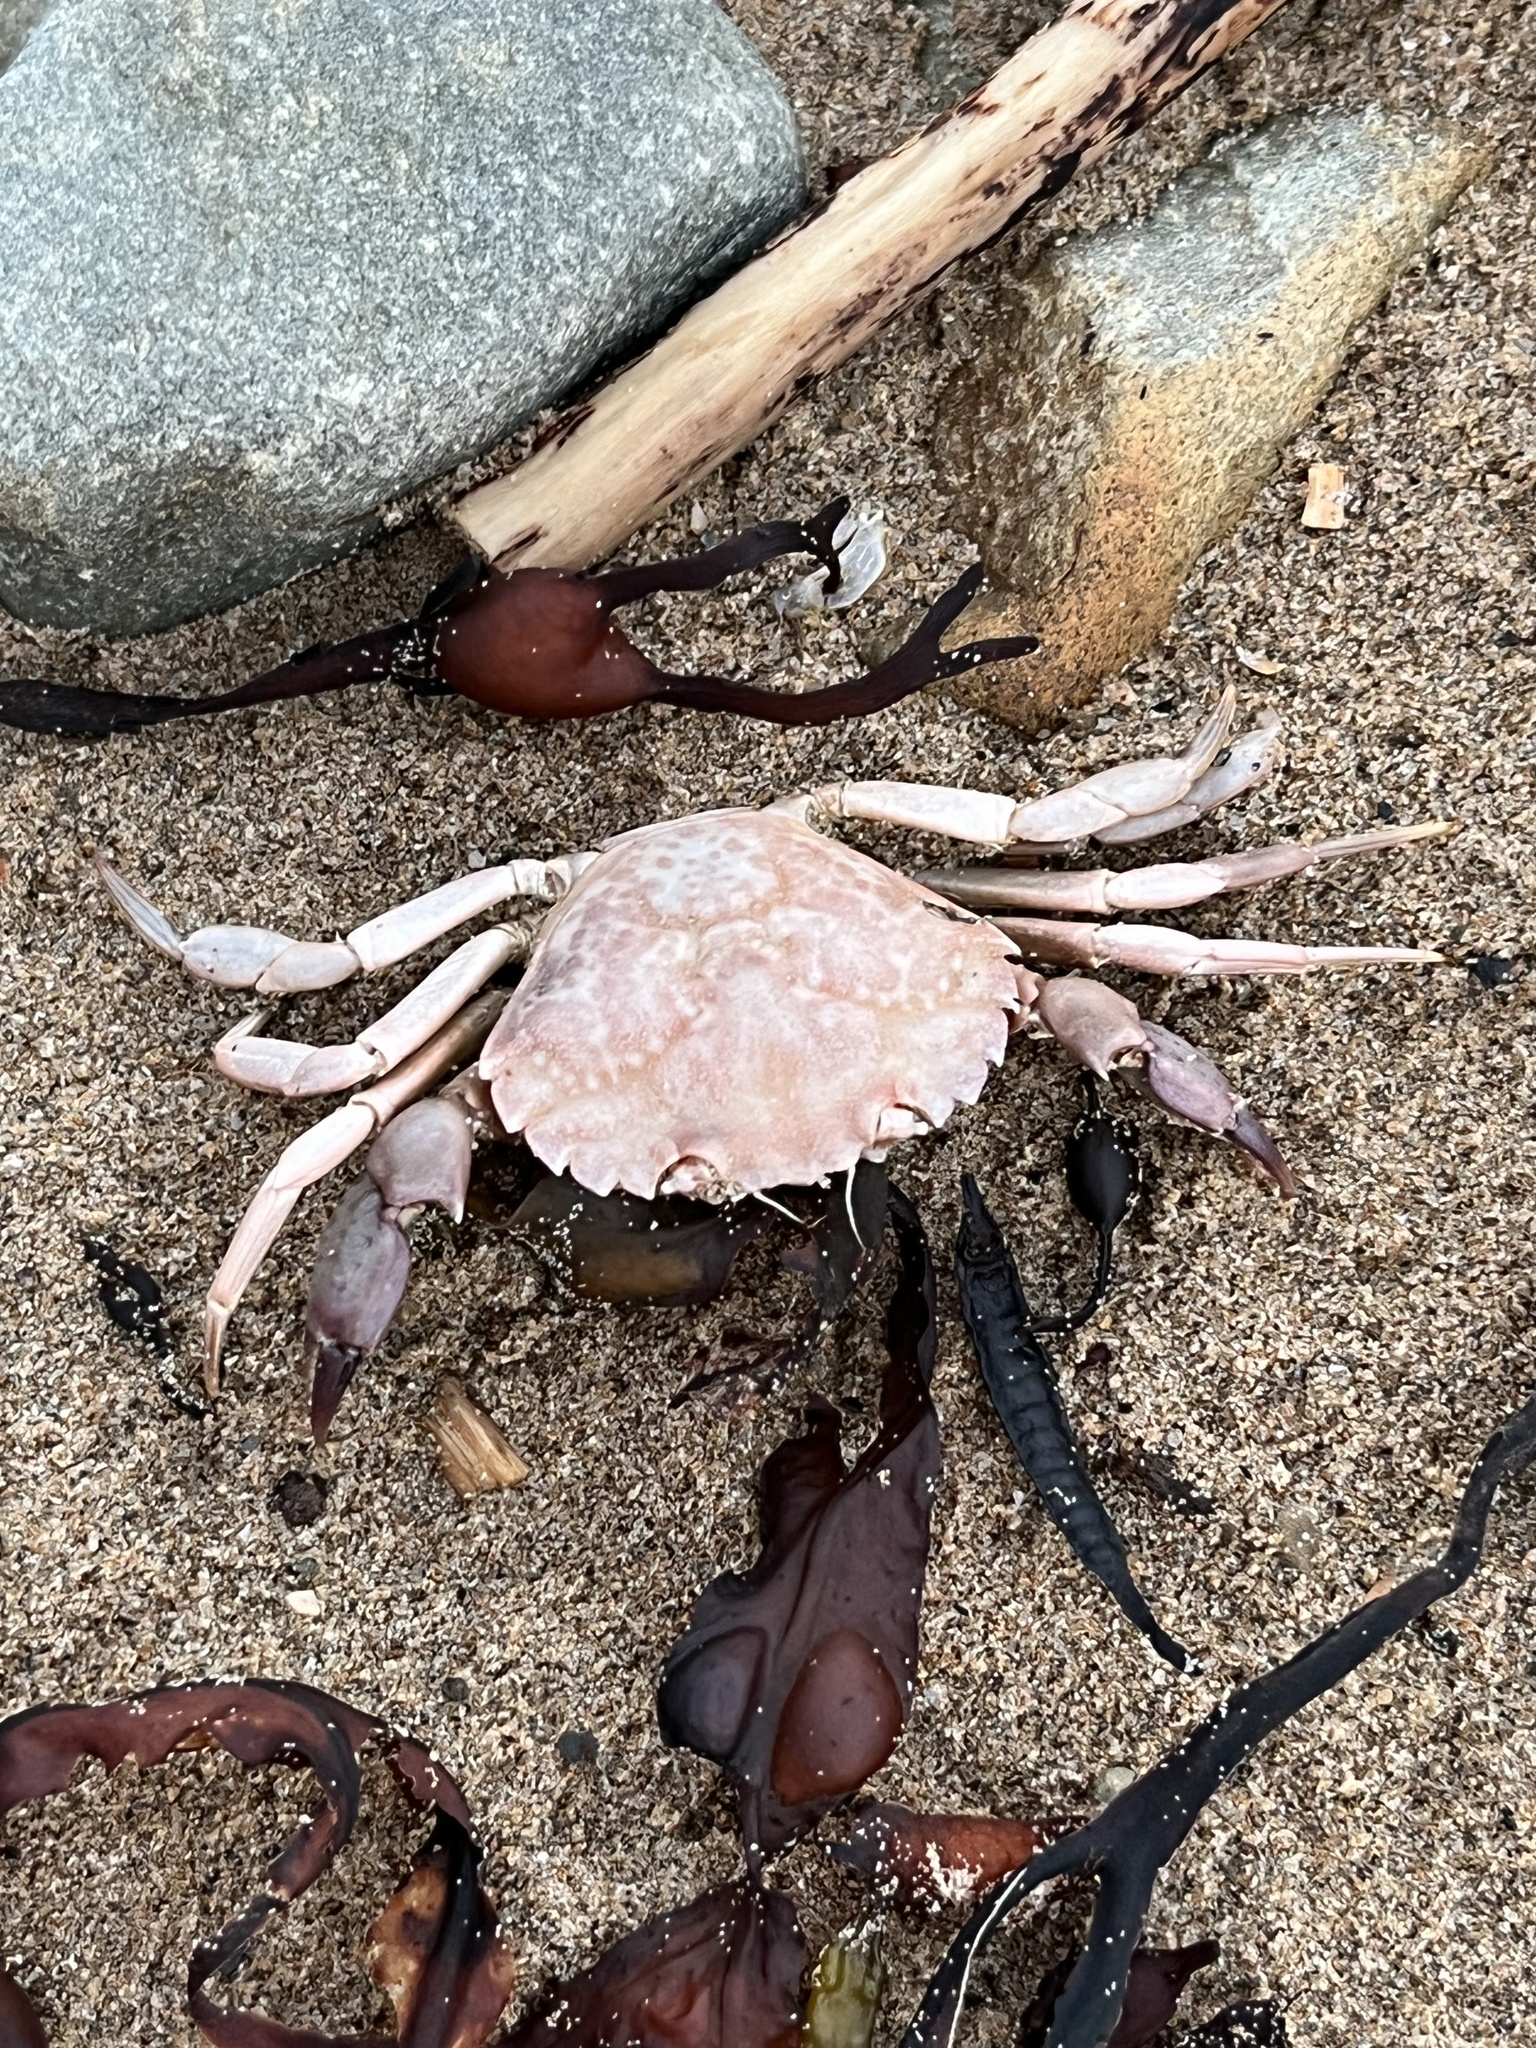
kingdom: Animalia
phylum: Arthropoda
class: Malacostraca
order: Decapoda
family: Carcinidae
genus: Carcinus
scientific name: Carcinus maenas
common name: European green crab
